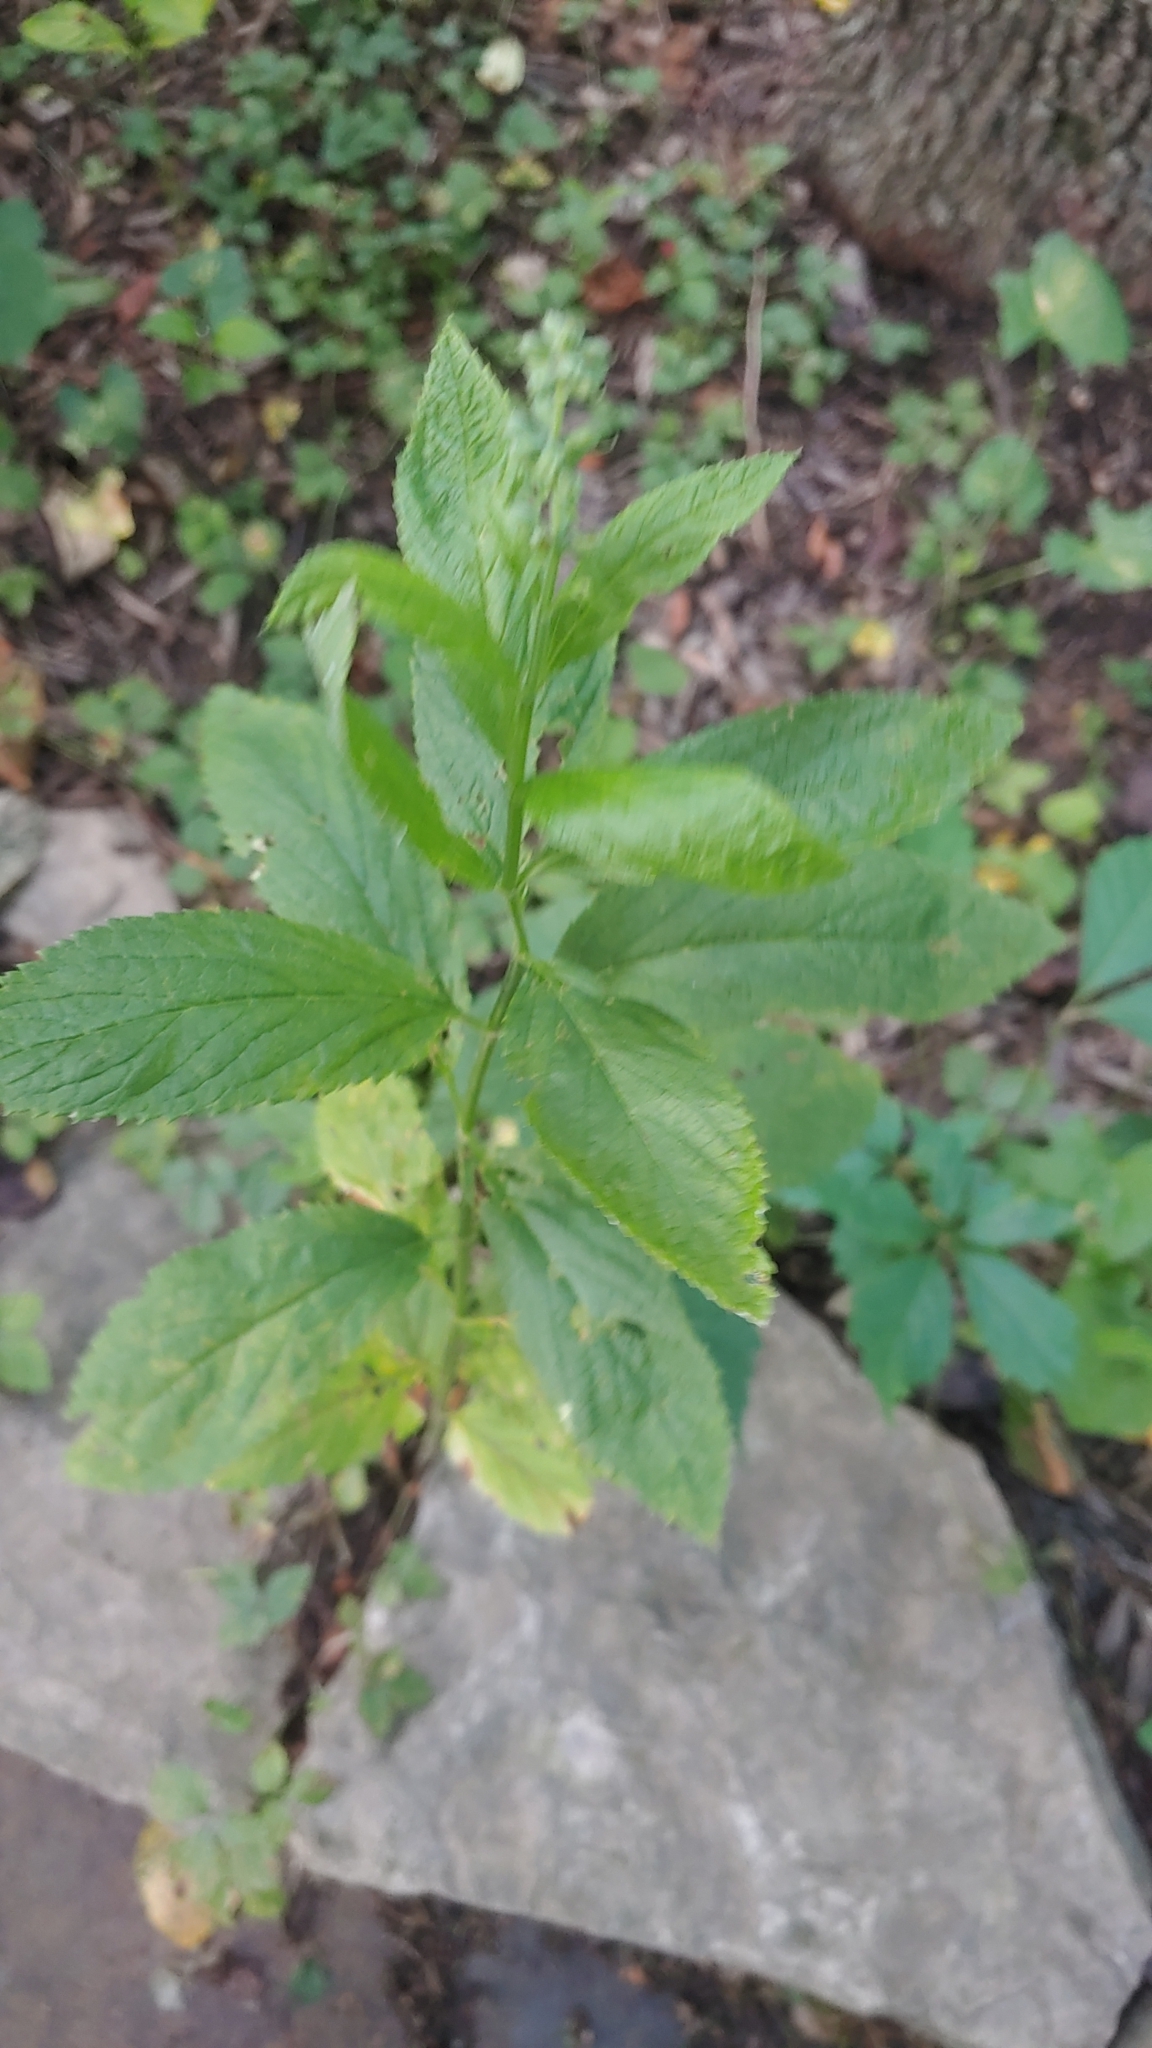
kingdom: Plantae
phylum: Tracheophyta
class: Magnoliopsida
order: Lamiales
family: Lamiaceae
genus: Teucrium
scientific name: Teucrium canadense
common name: American germander
